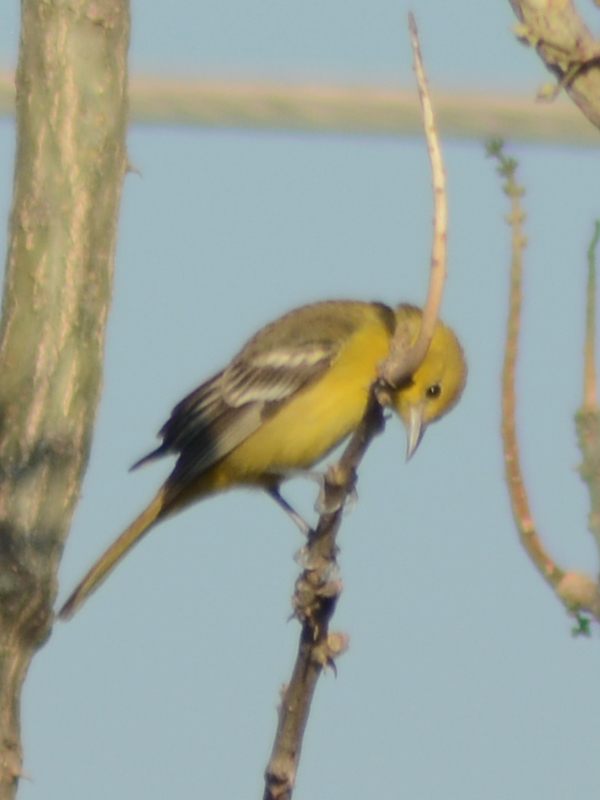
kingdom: Animalia
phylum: Chordata
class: Aves
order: Passeriformes
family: Icteridae
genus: Icterus
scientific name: Icterus spurius
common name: Orchard oriole
